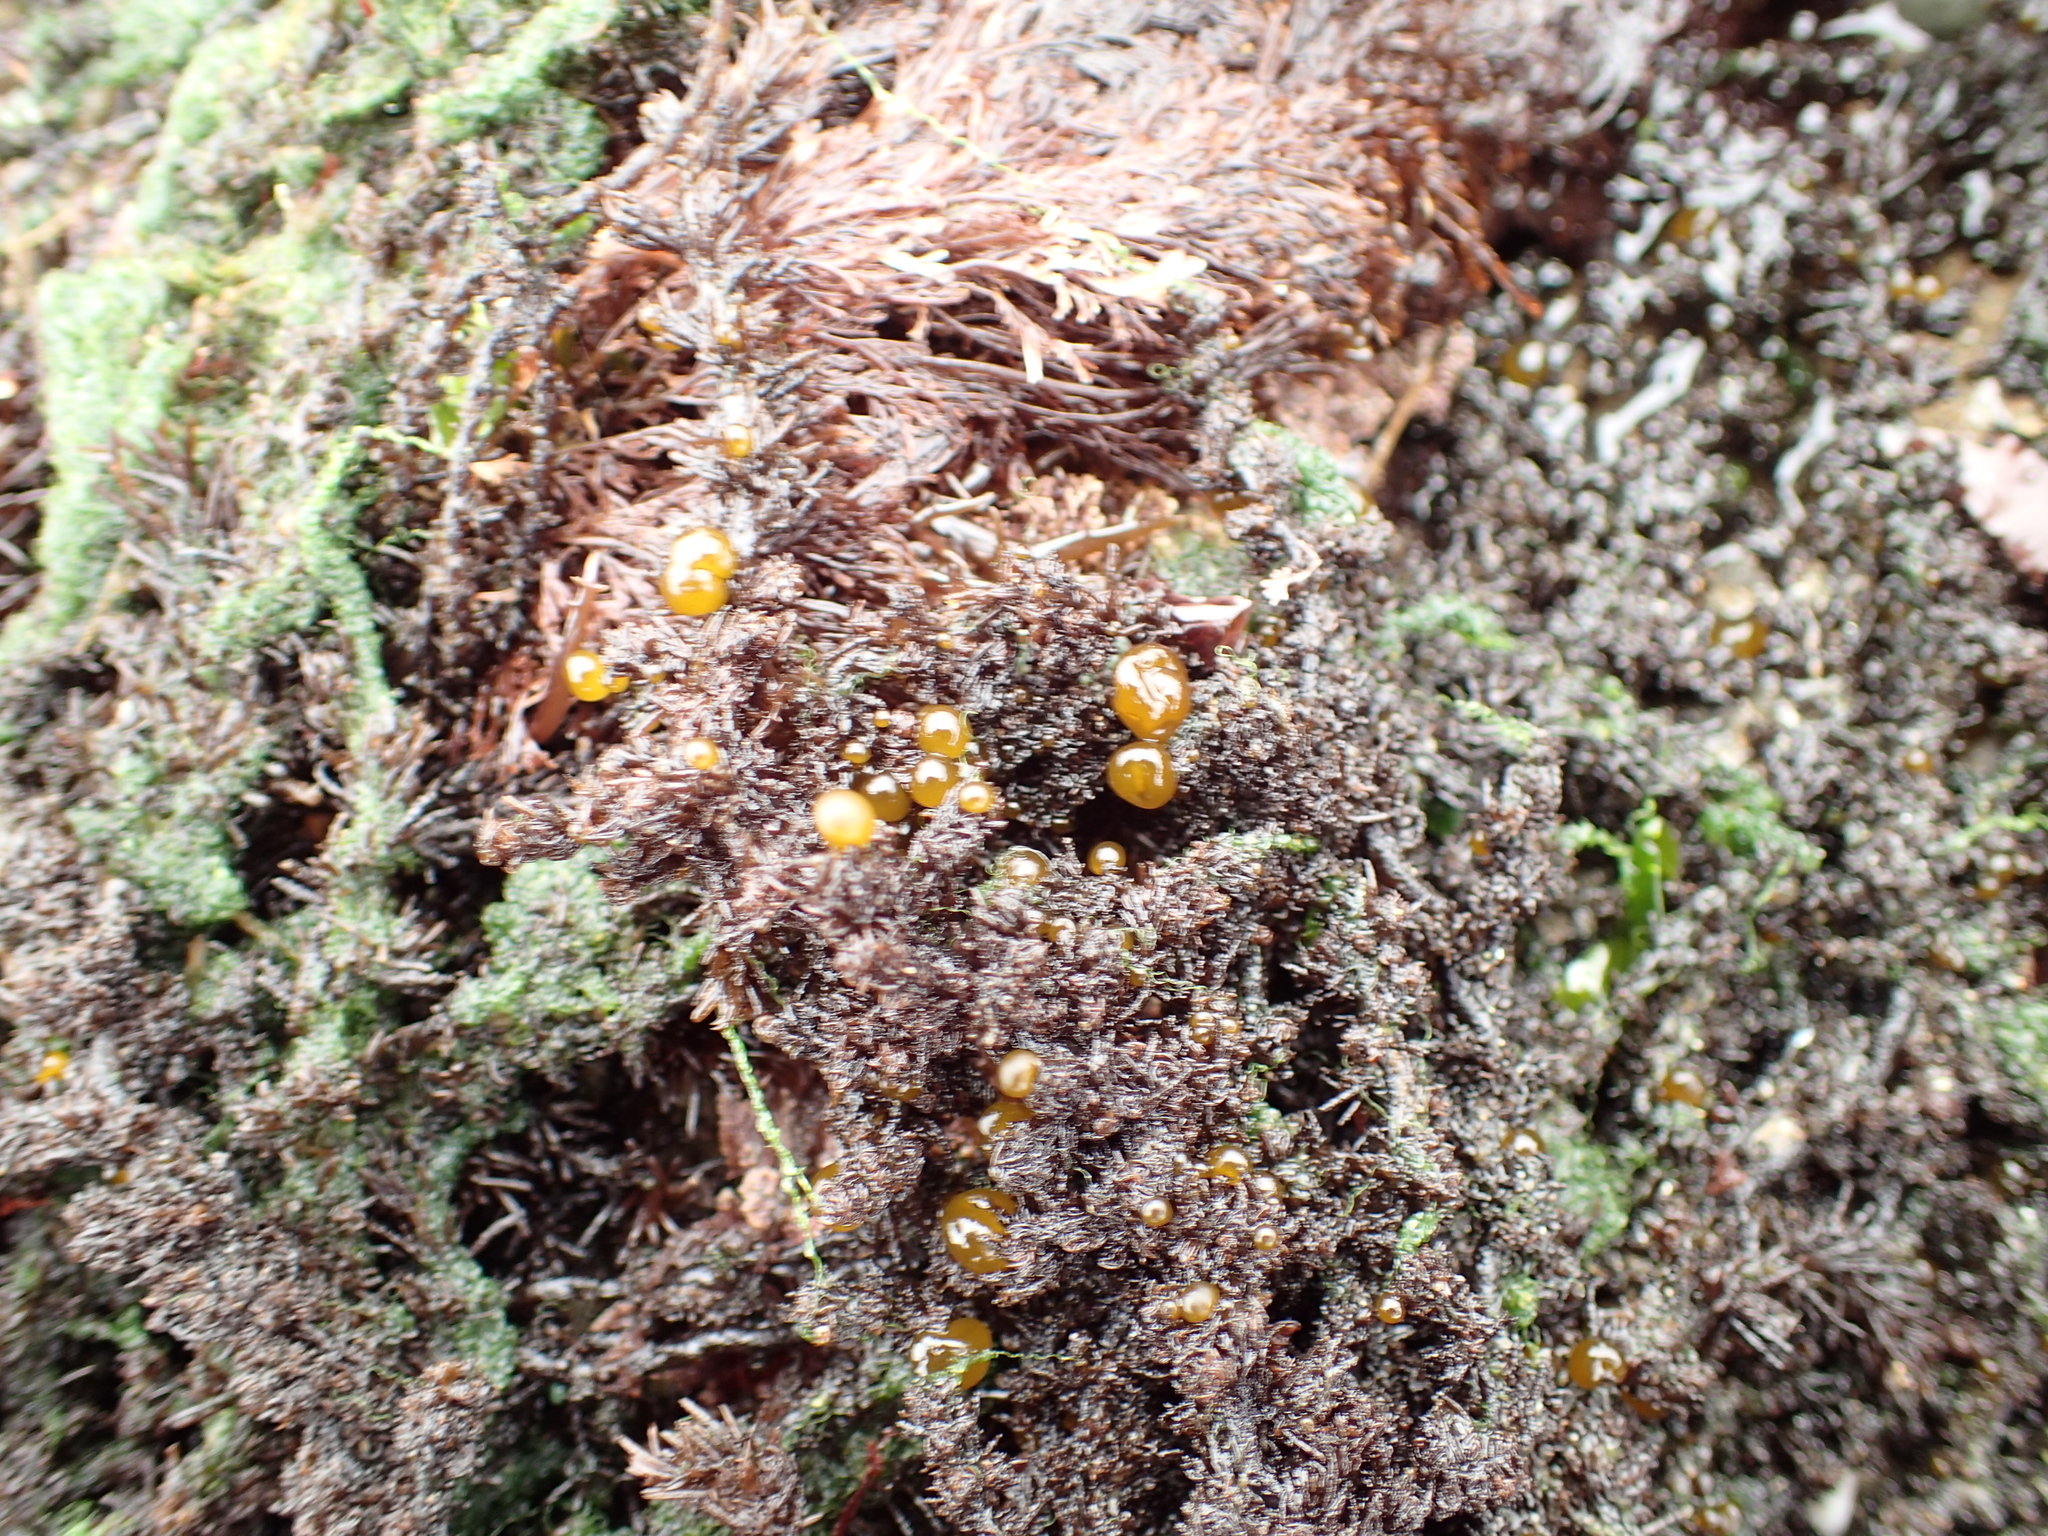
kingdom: Chromista
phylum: Ochrophyta
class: Phaeophyceae
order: Scytosiphonales
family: Scytosiphonaceae
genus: Colpomenia
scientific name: Colpomenia peregrina
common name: Oyster thief
